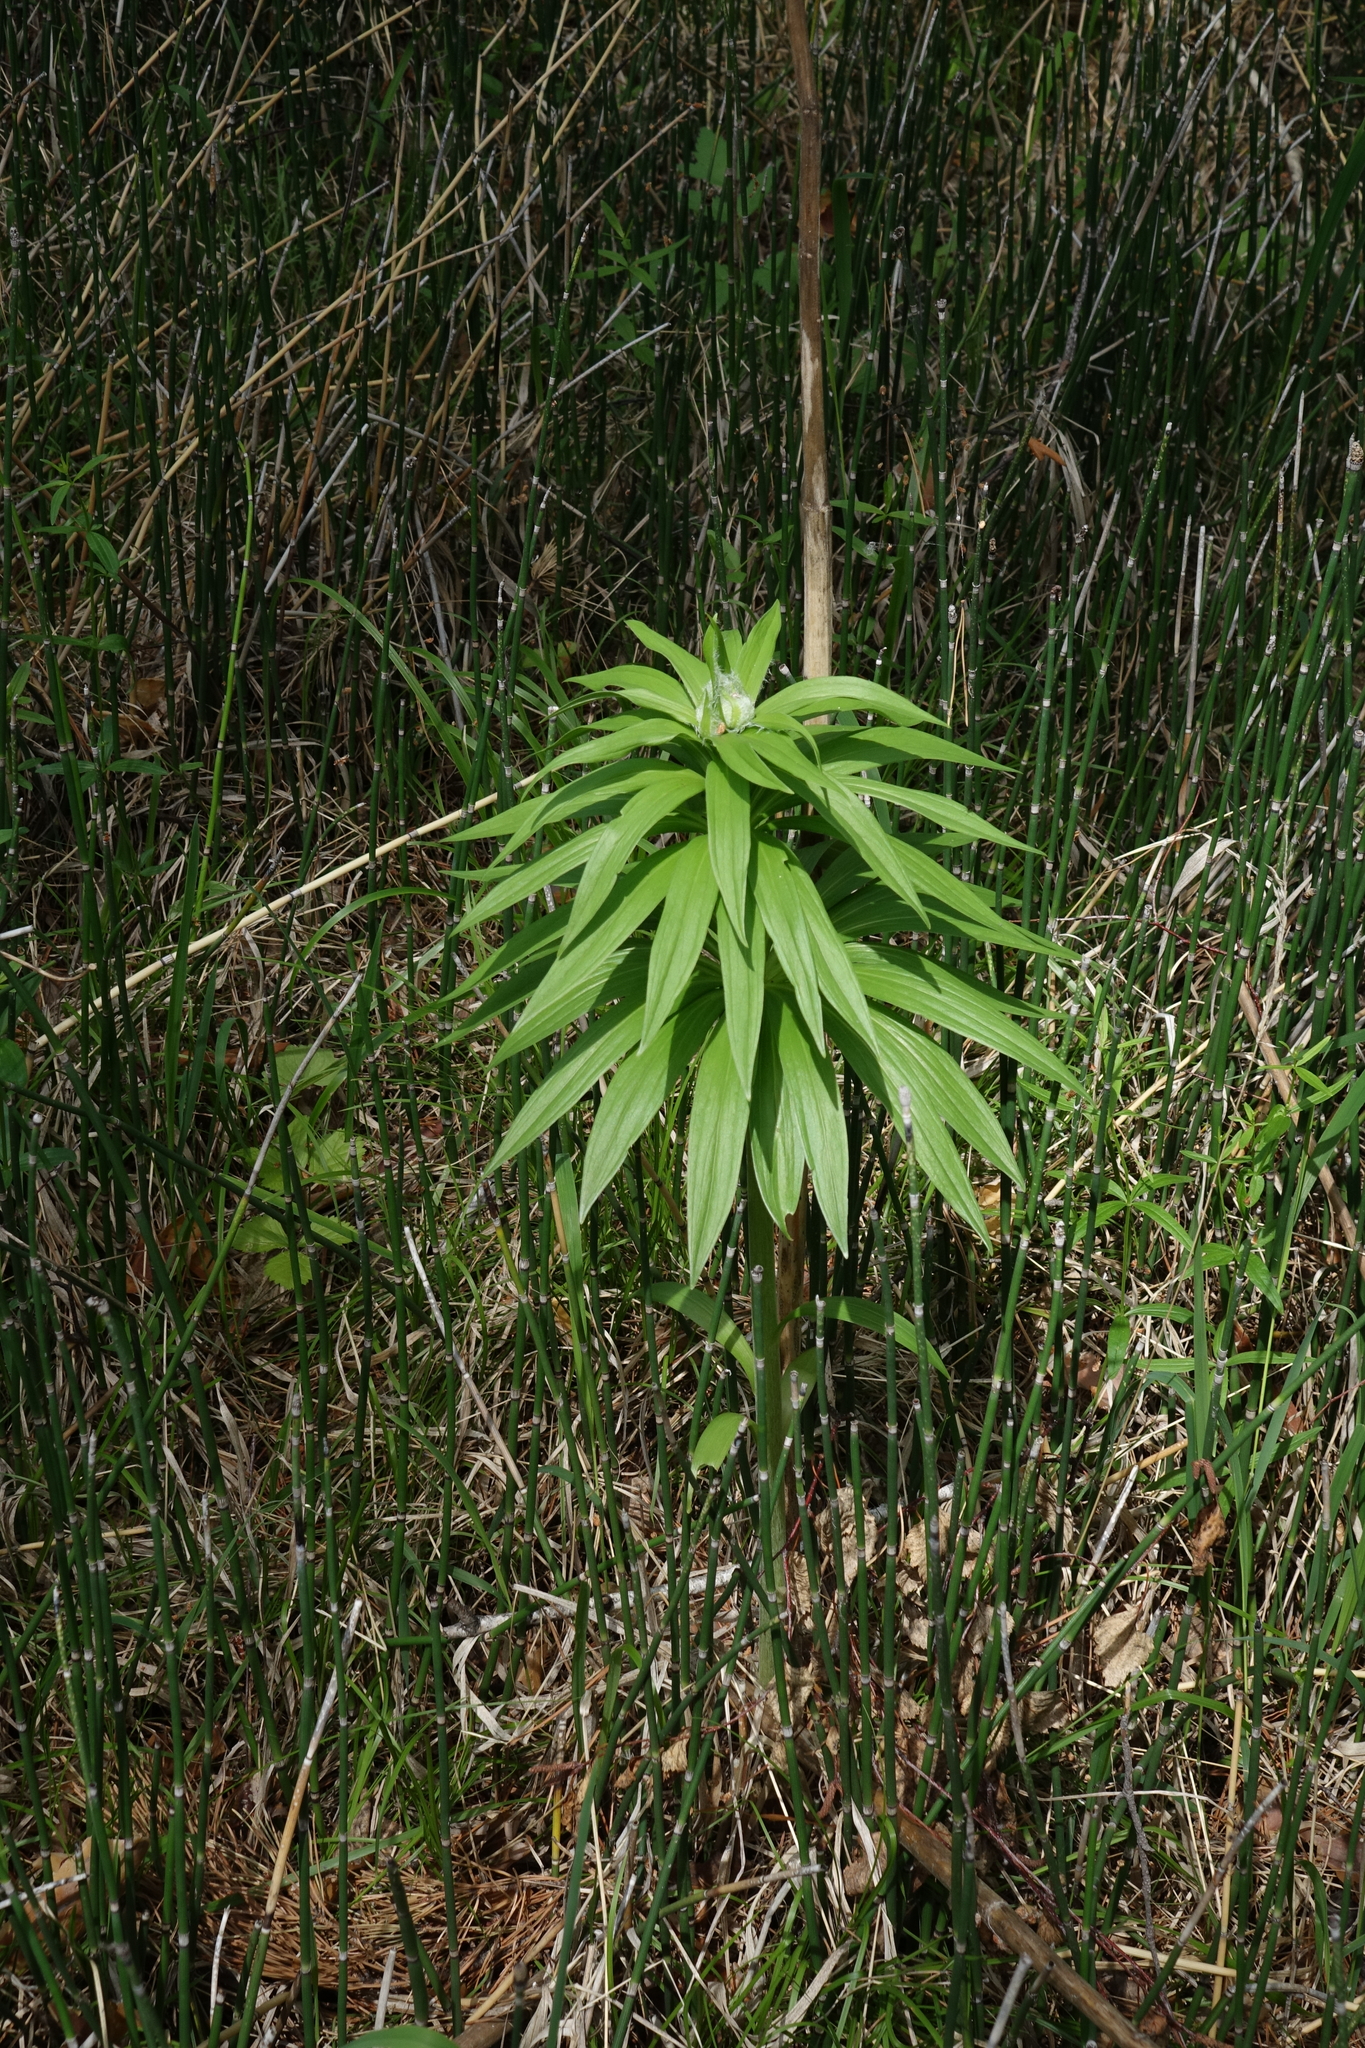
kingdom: Plantae
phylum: Tracheophyta
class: Liliopsida
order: Liliales
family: Liliaceae
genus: Lilium
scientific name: Lilium martagon
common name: Martagon lily
